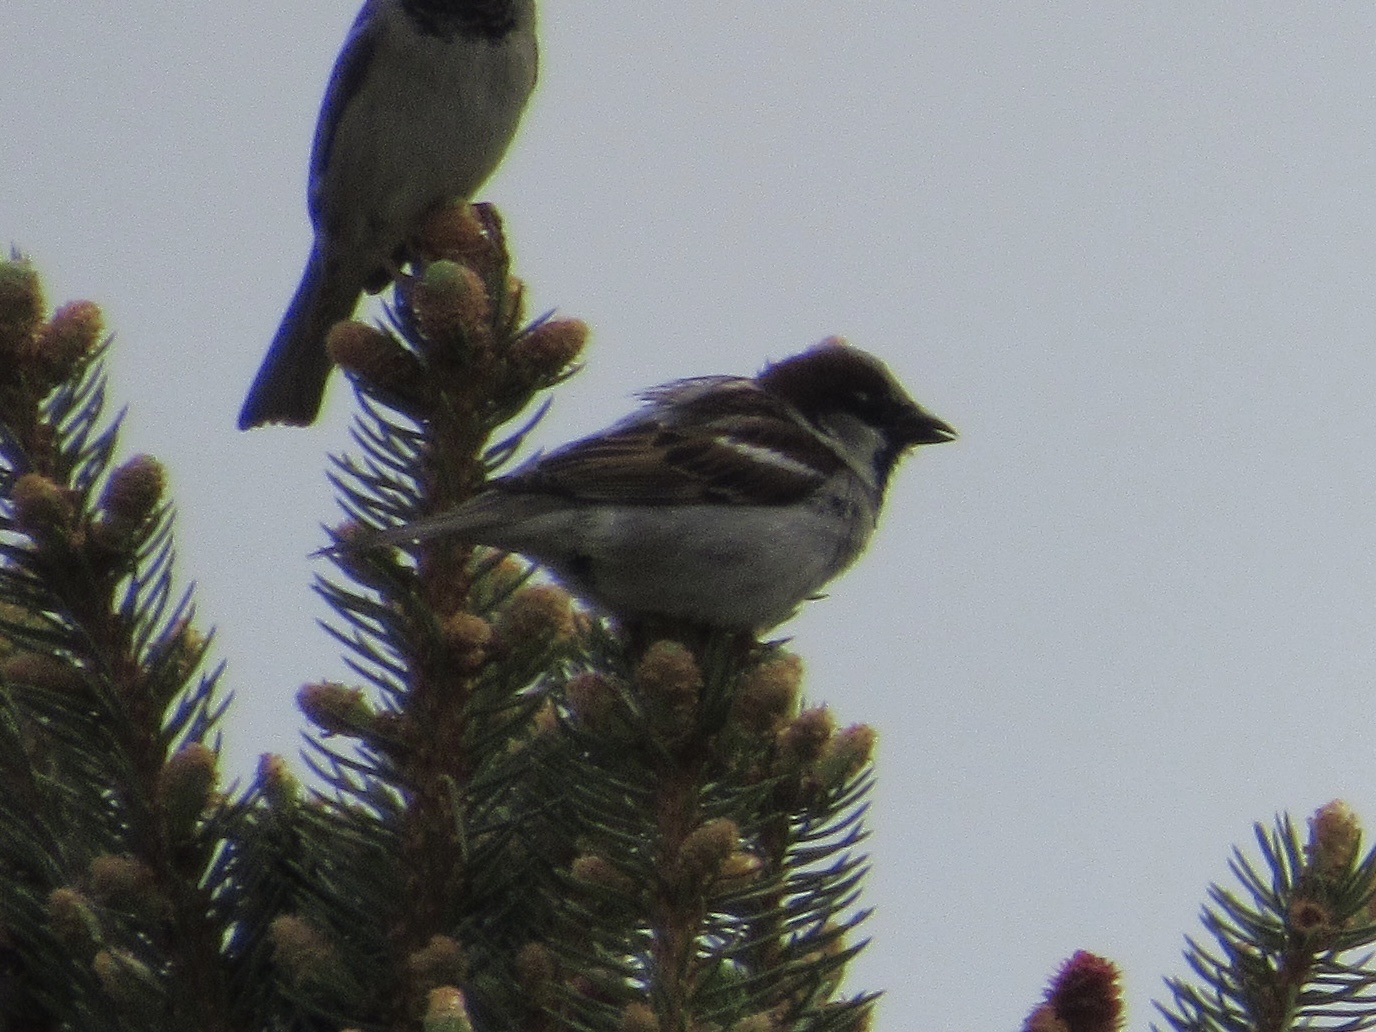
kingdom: Animalia
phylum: Chordata
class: Aves
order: Passeriformes
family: Passeridae
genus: Passer
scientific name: Passer domesticus
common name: House sparrow
